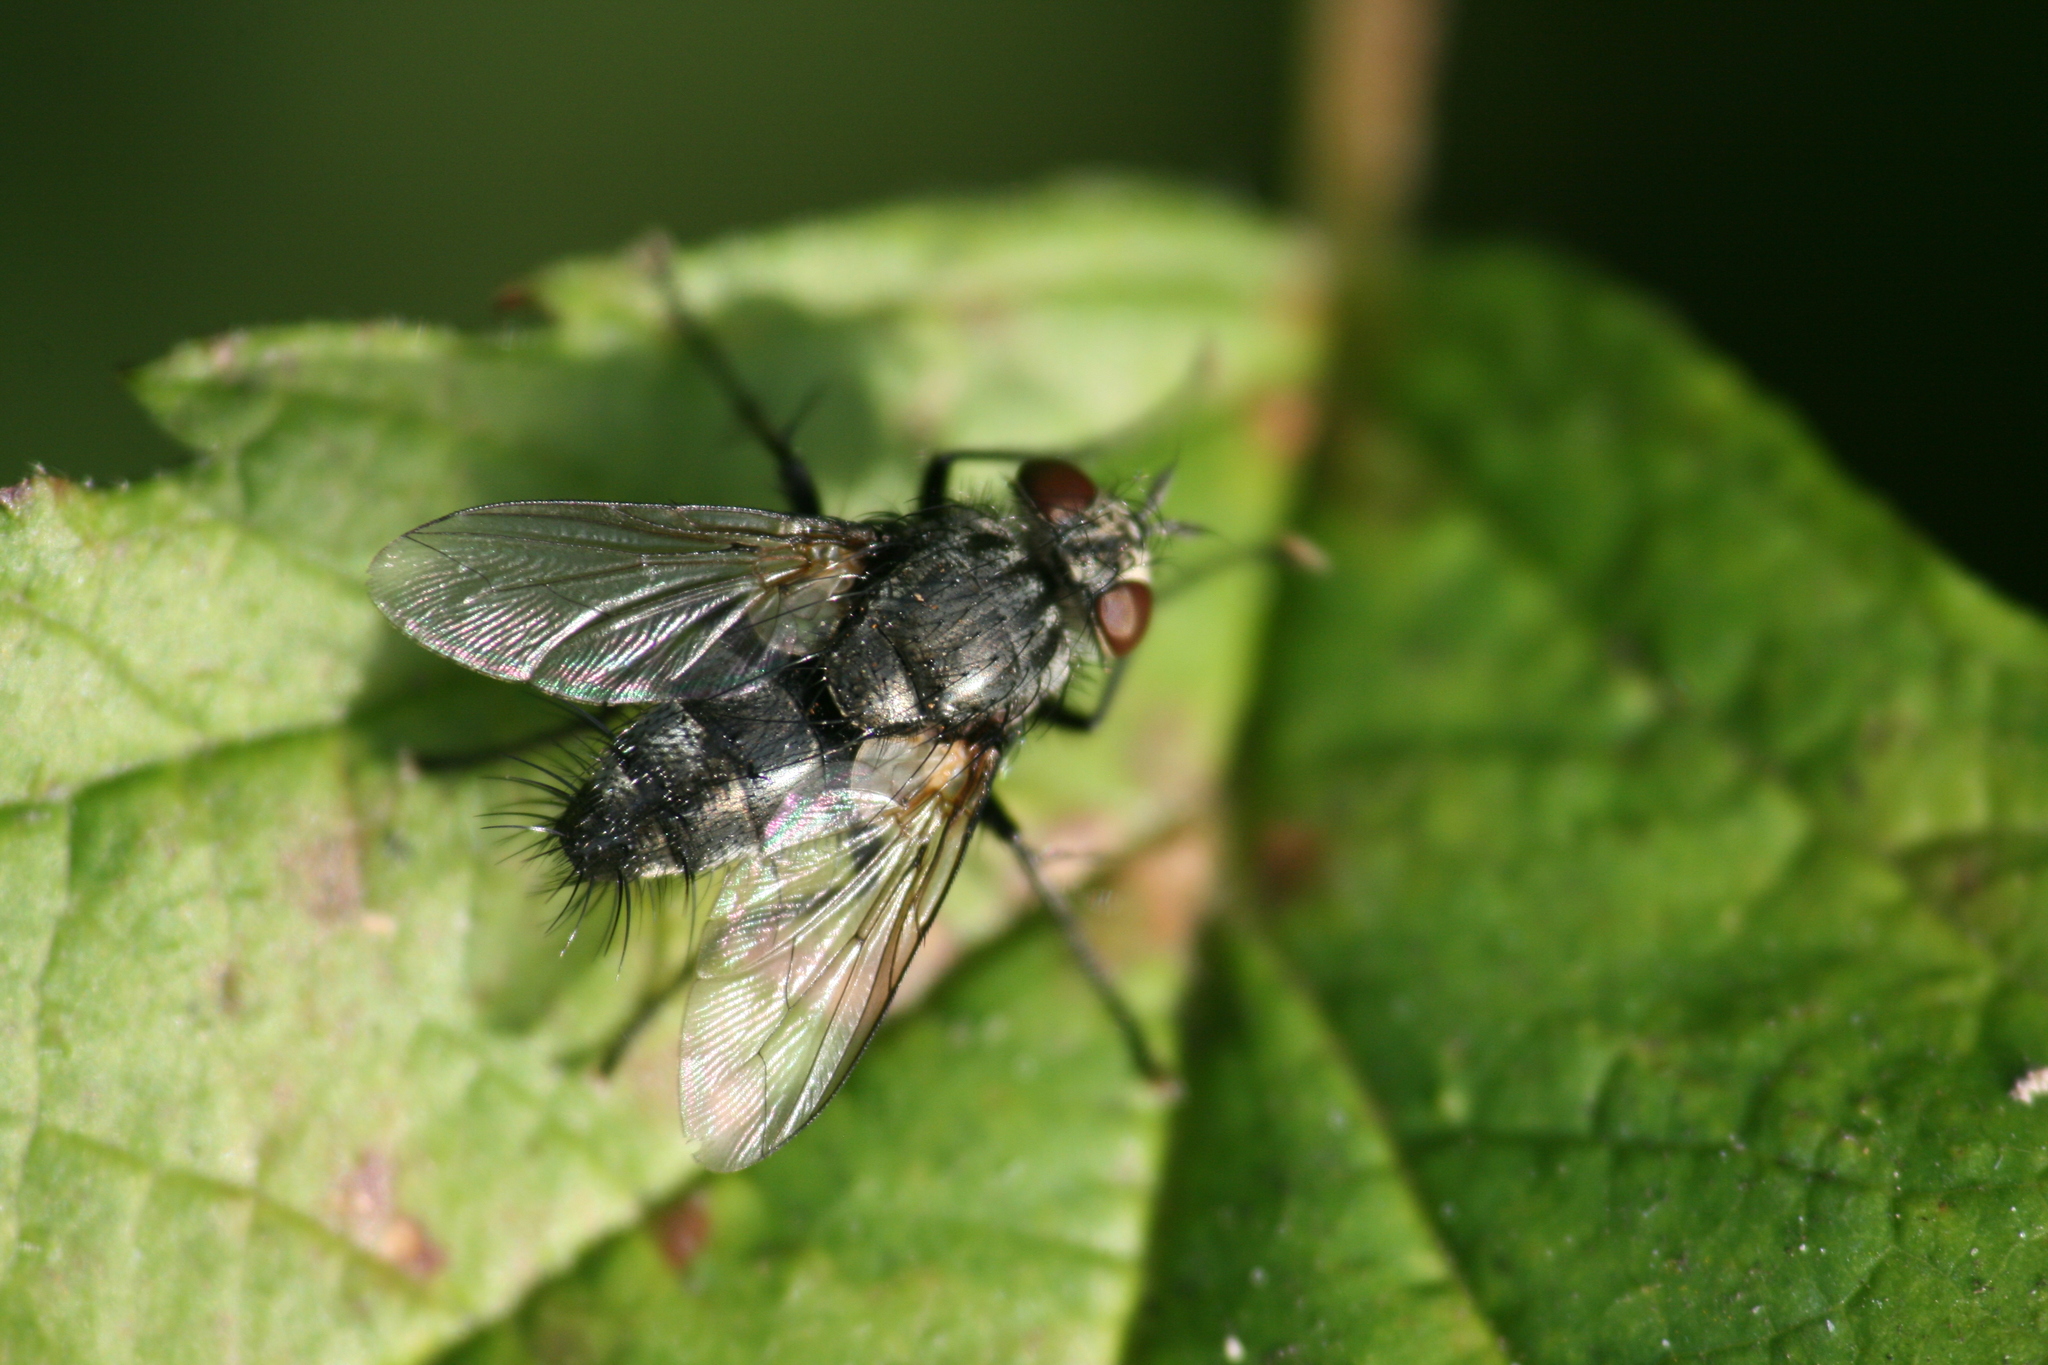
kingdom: Animalia
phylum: Arthropoda
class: Insecta
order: Diptera
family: Tachinidae
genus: Voria
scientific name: Voria ruralis
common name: Parasitic fly
